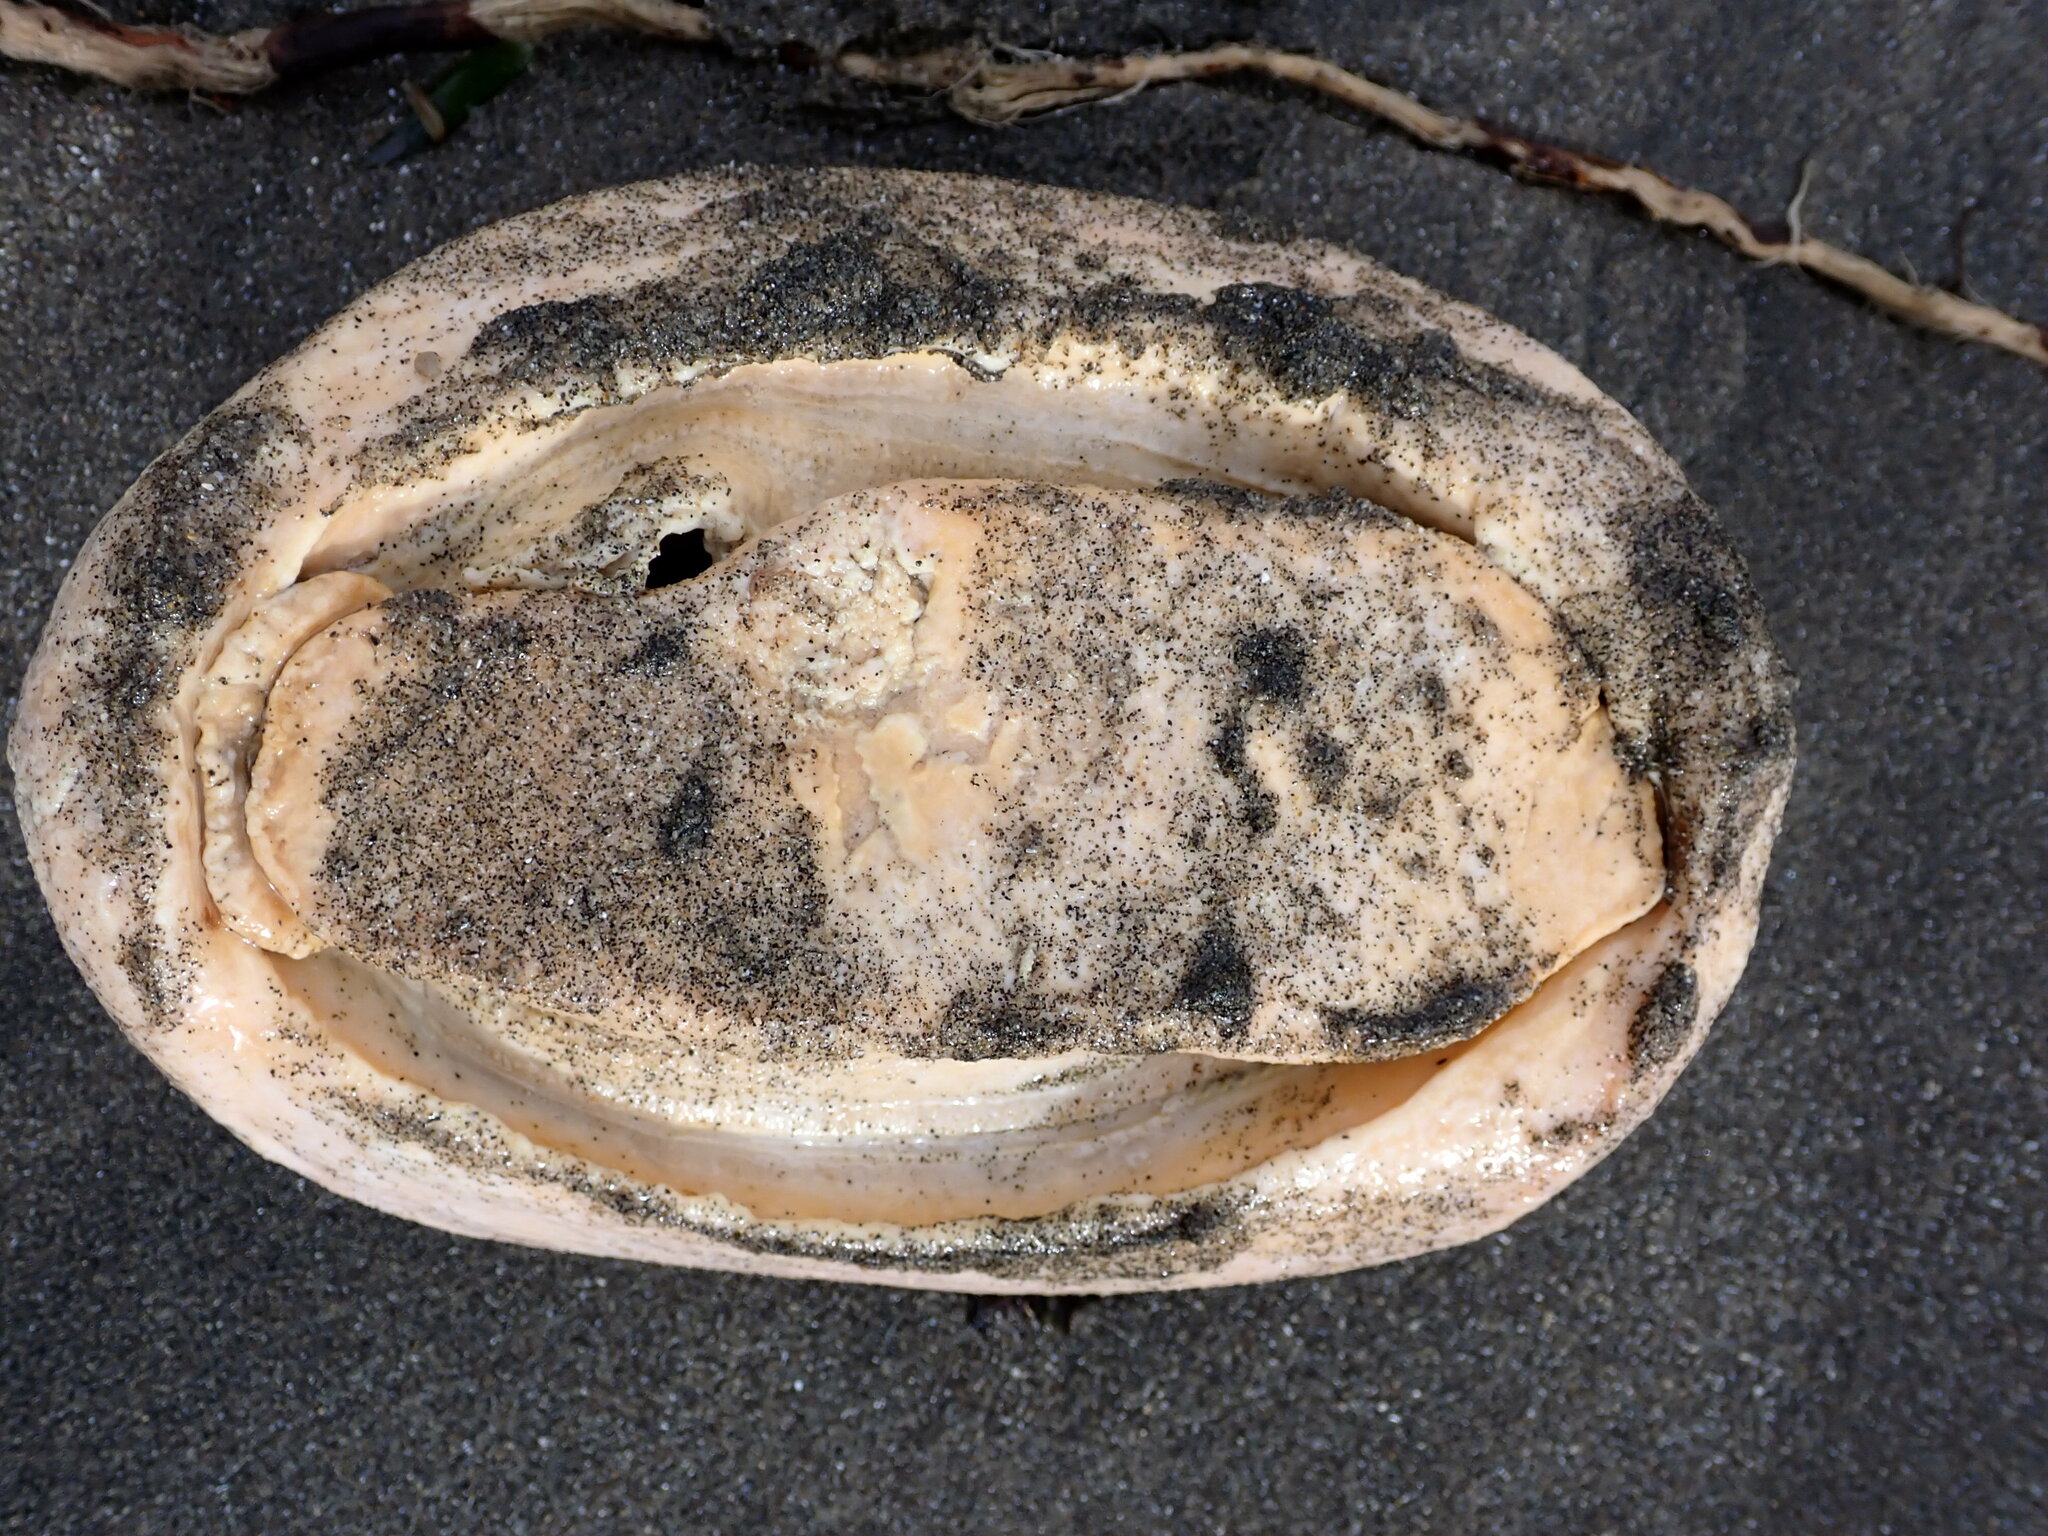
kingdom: Animalia
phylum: Mollusca
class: Polyplacophora
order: Chitonida
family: Acanthochitonidae
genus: Cryptochiton
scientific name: Cryptochiton stelleri
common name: Giant pacific chiton
